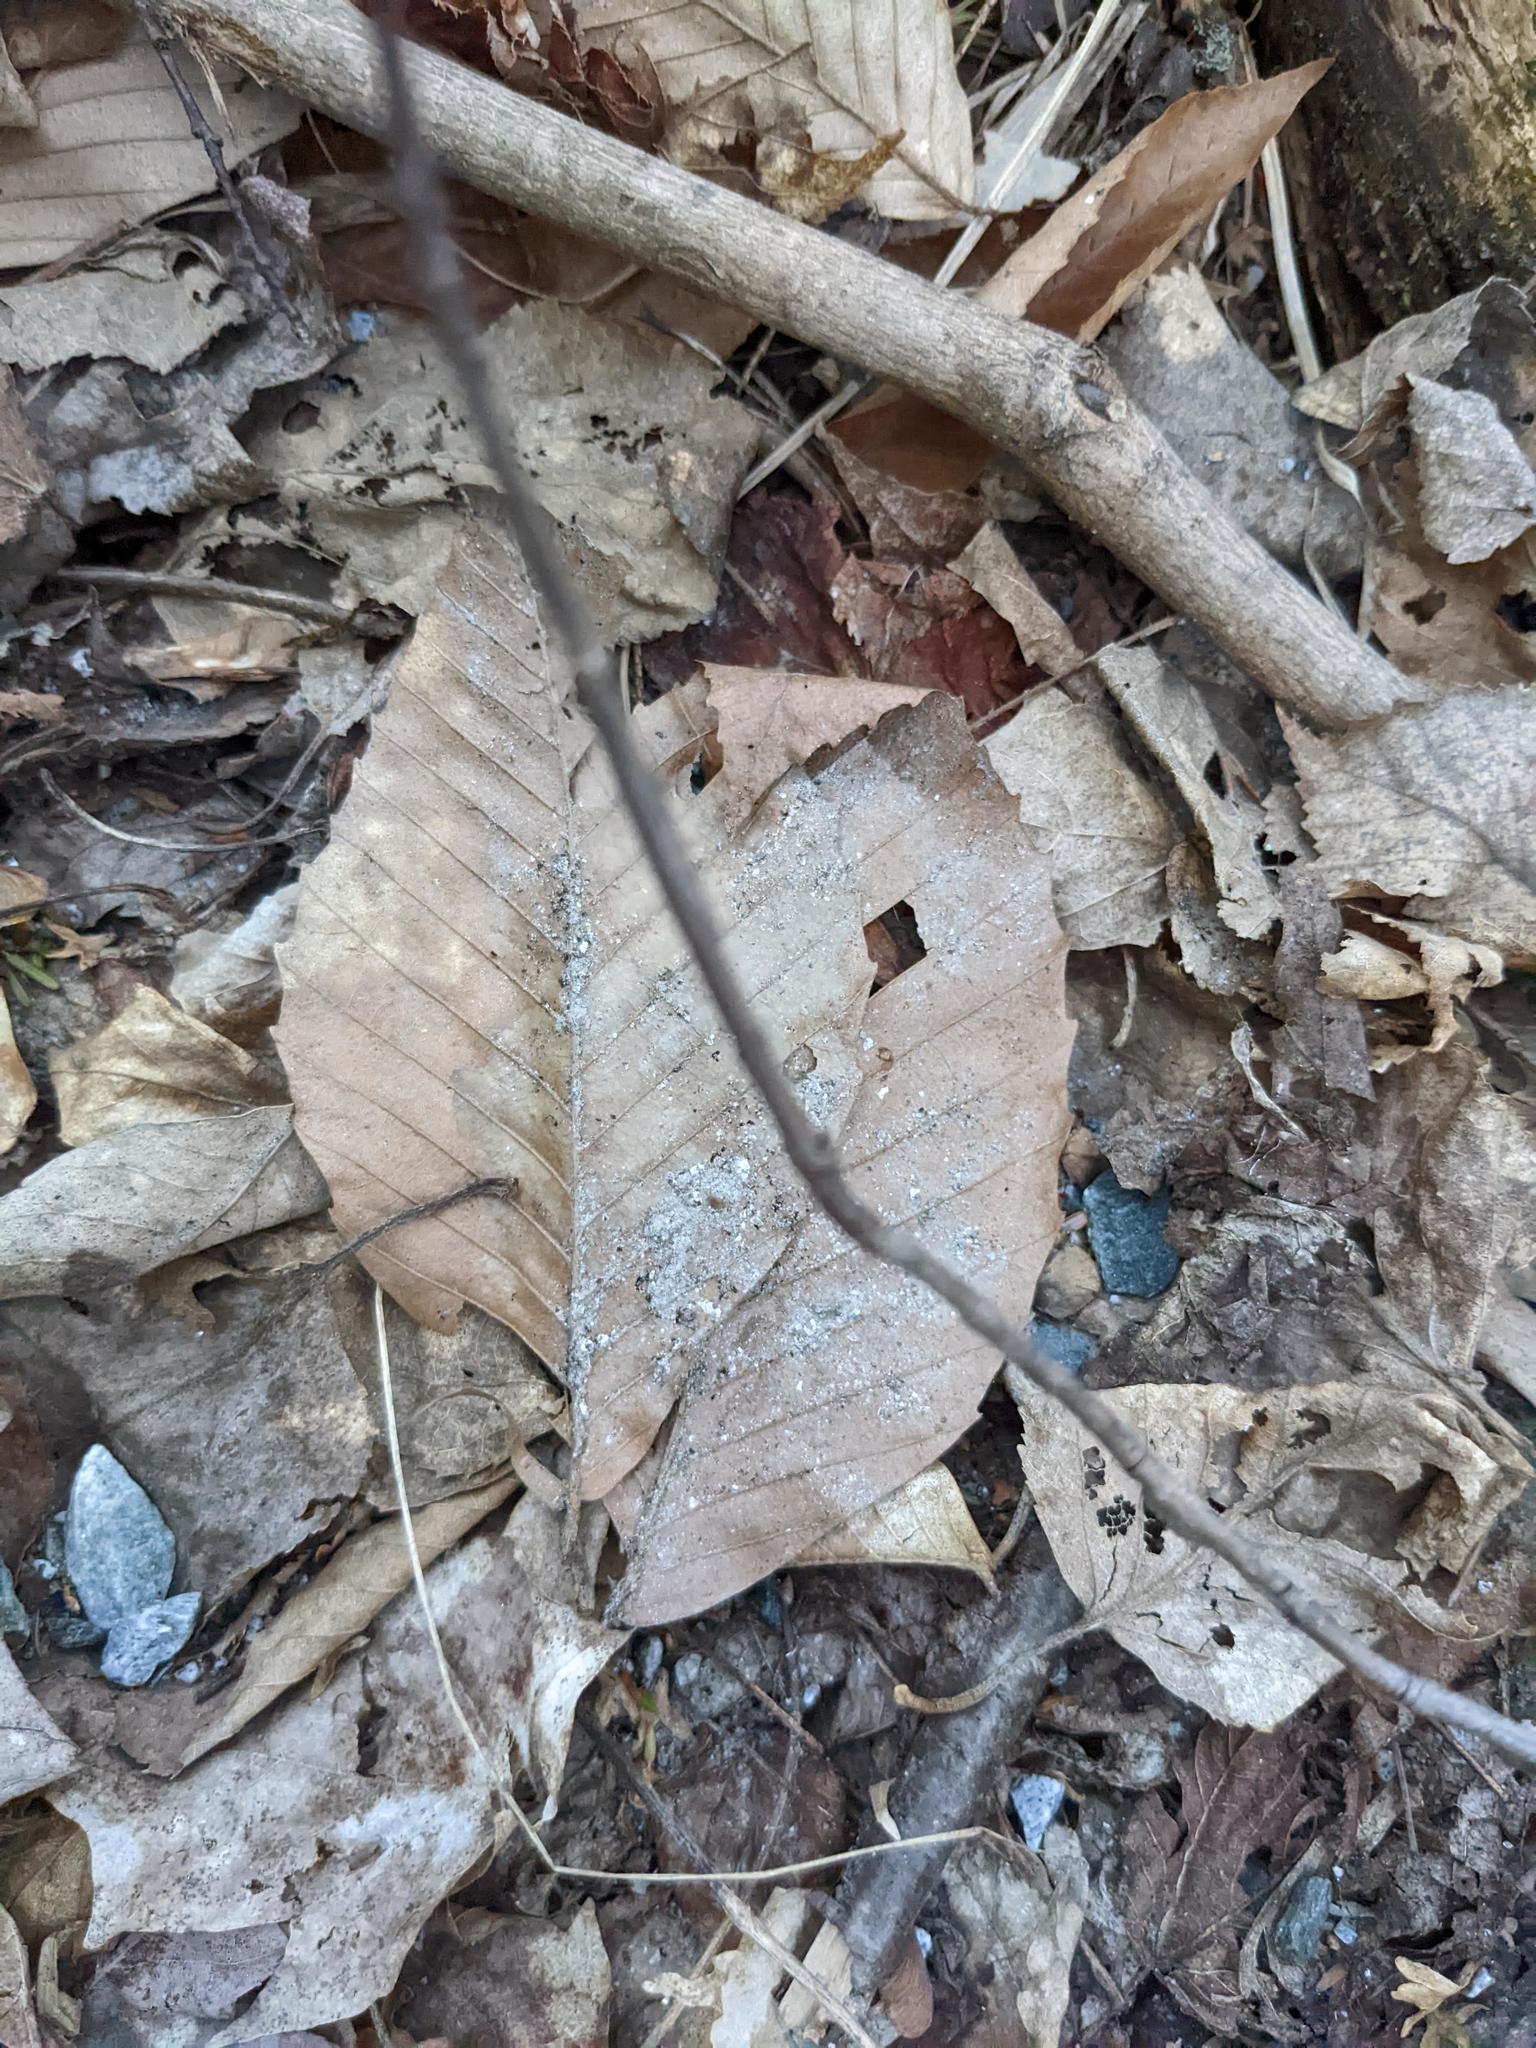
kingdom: Plantae
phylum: Tracheophyta
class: Magnoliopsida
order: Fagales
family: Fagaceae
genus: Fagus
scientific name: Fagus grandifolia
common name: American beech
